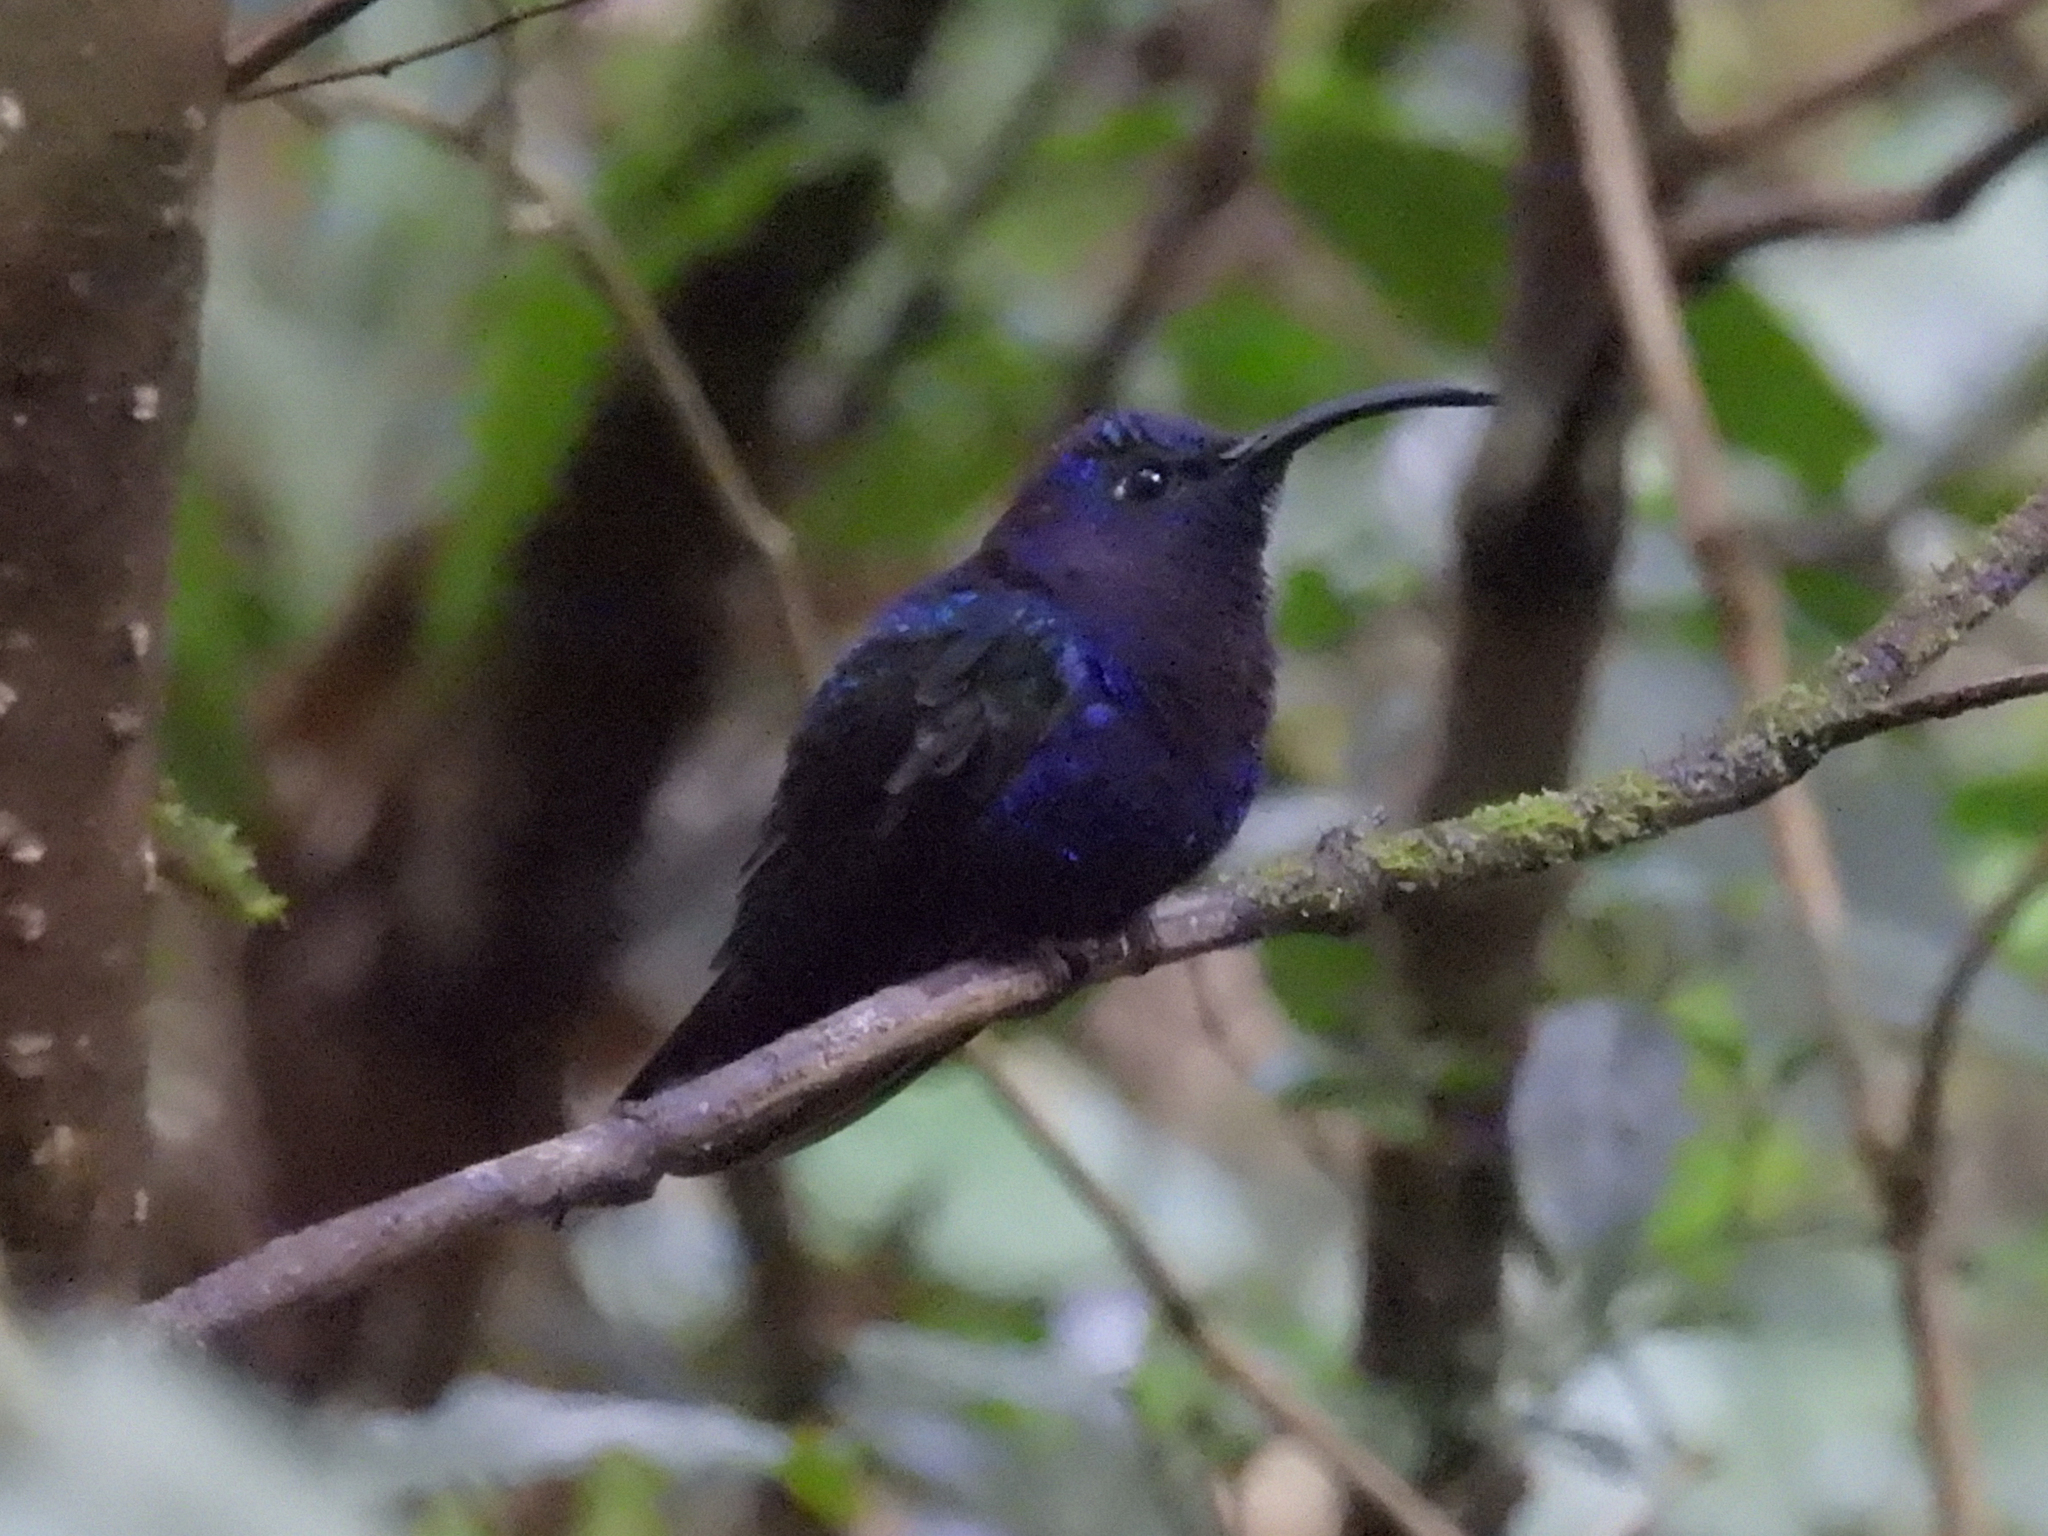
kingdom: Animalia
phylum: Chordata
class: Aves
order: Apodiformes
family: Trochilidae
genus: Campylopterus
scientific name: Campylopterus hemileucurus
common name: Violet sabrewing
